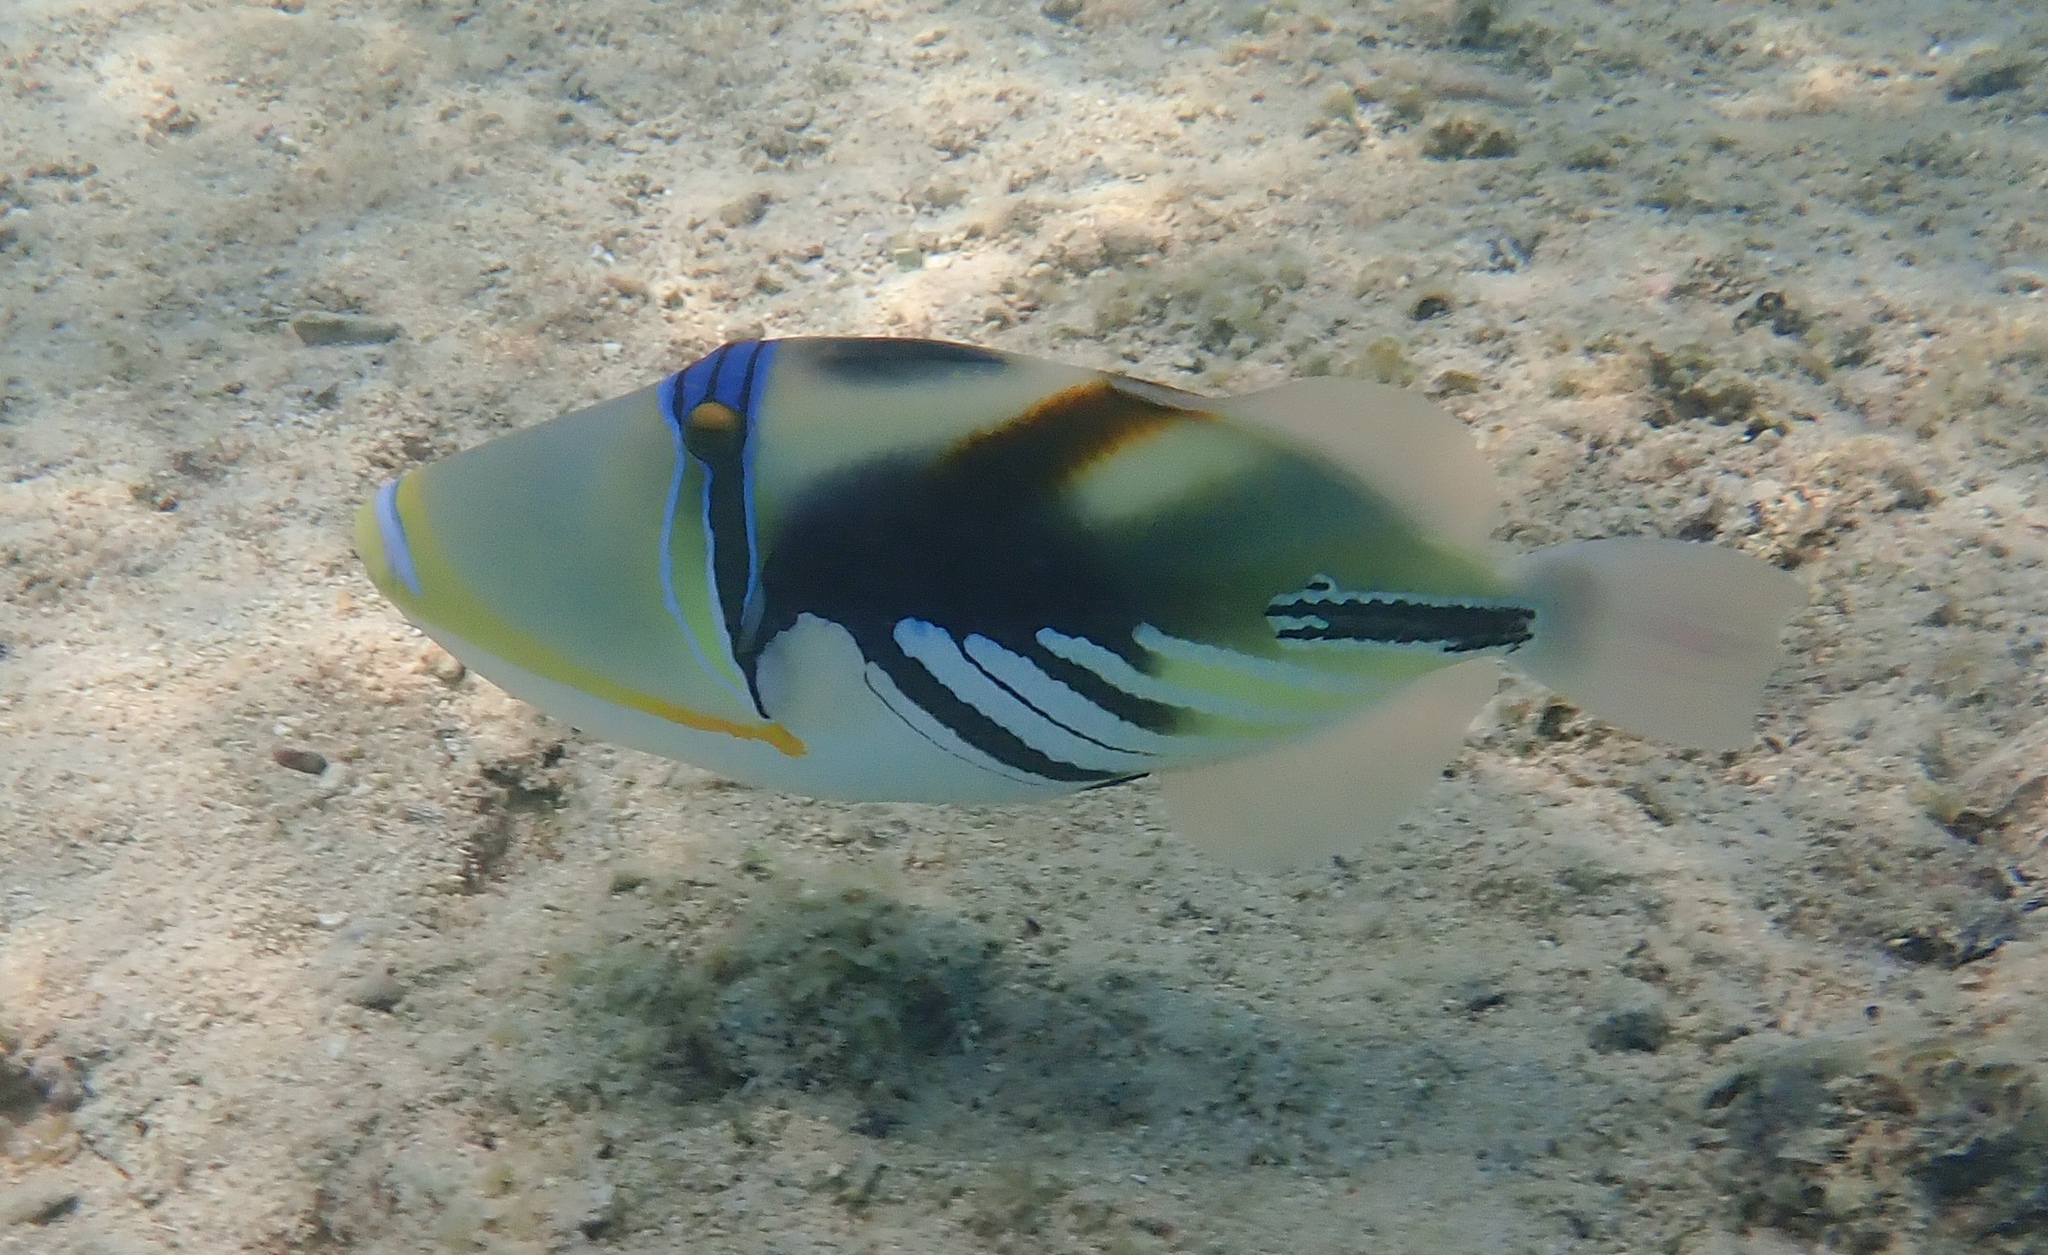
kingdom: Animalia
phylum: Chordata
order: Tetraodontiformes
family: Balistidae
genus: Rhinecanthus
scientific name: Rhinecanthus aculeatus
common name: White-banded triggerfish
